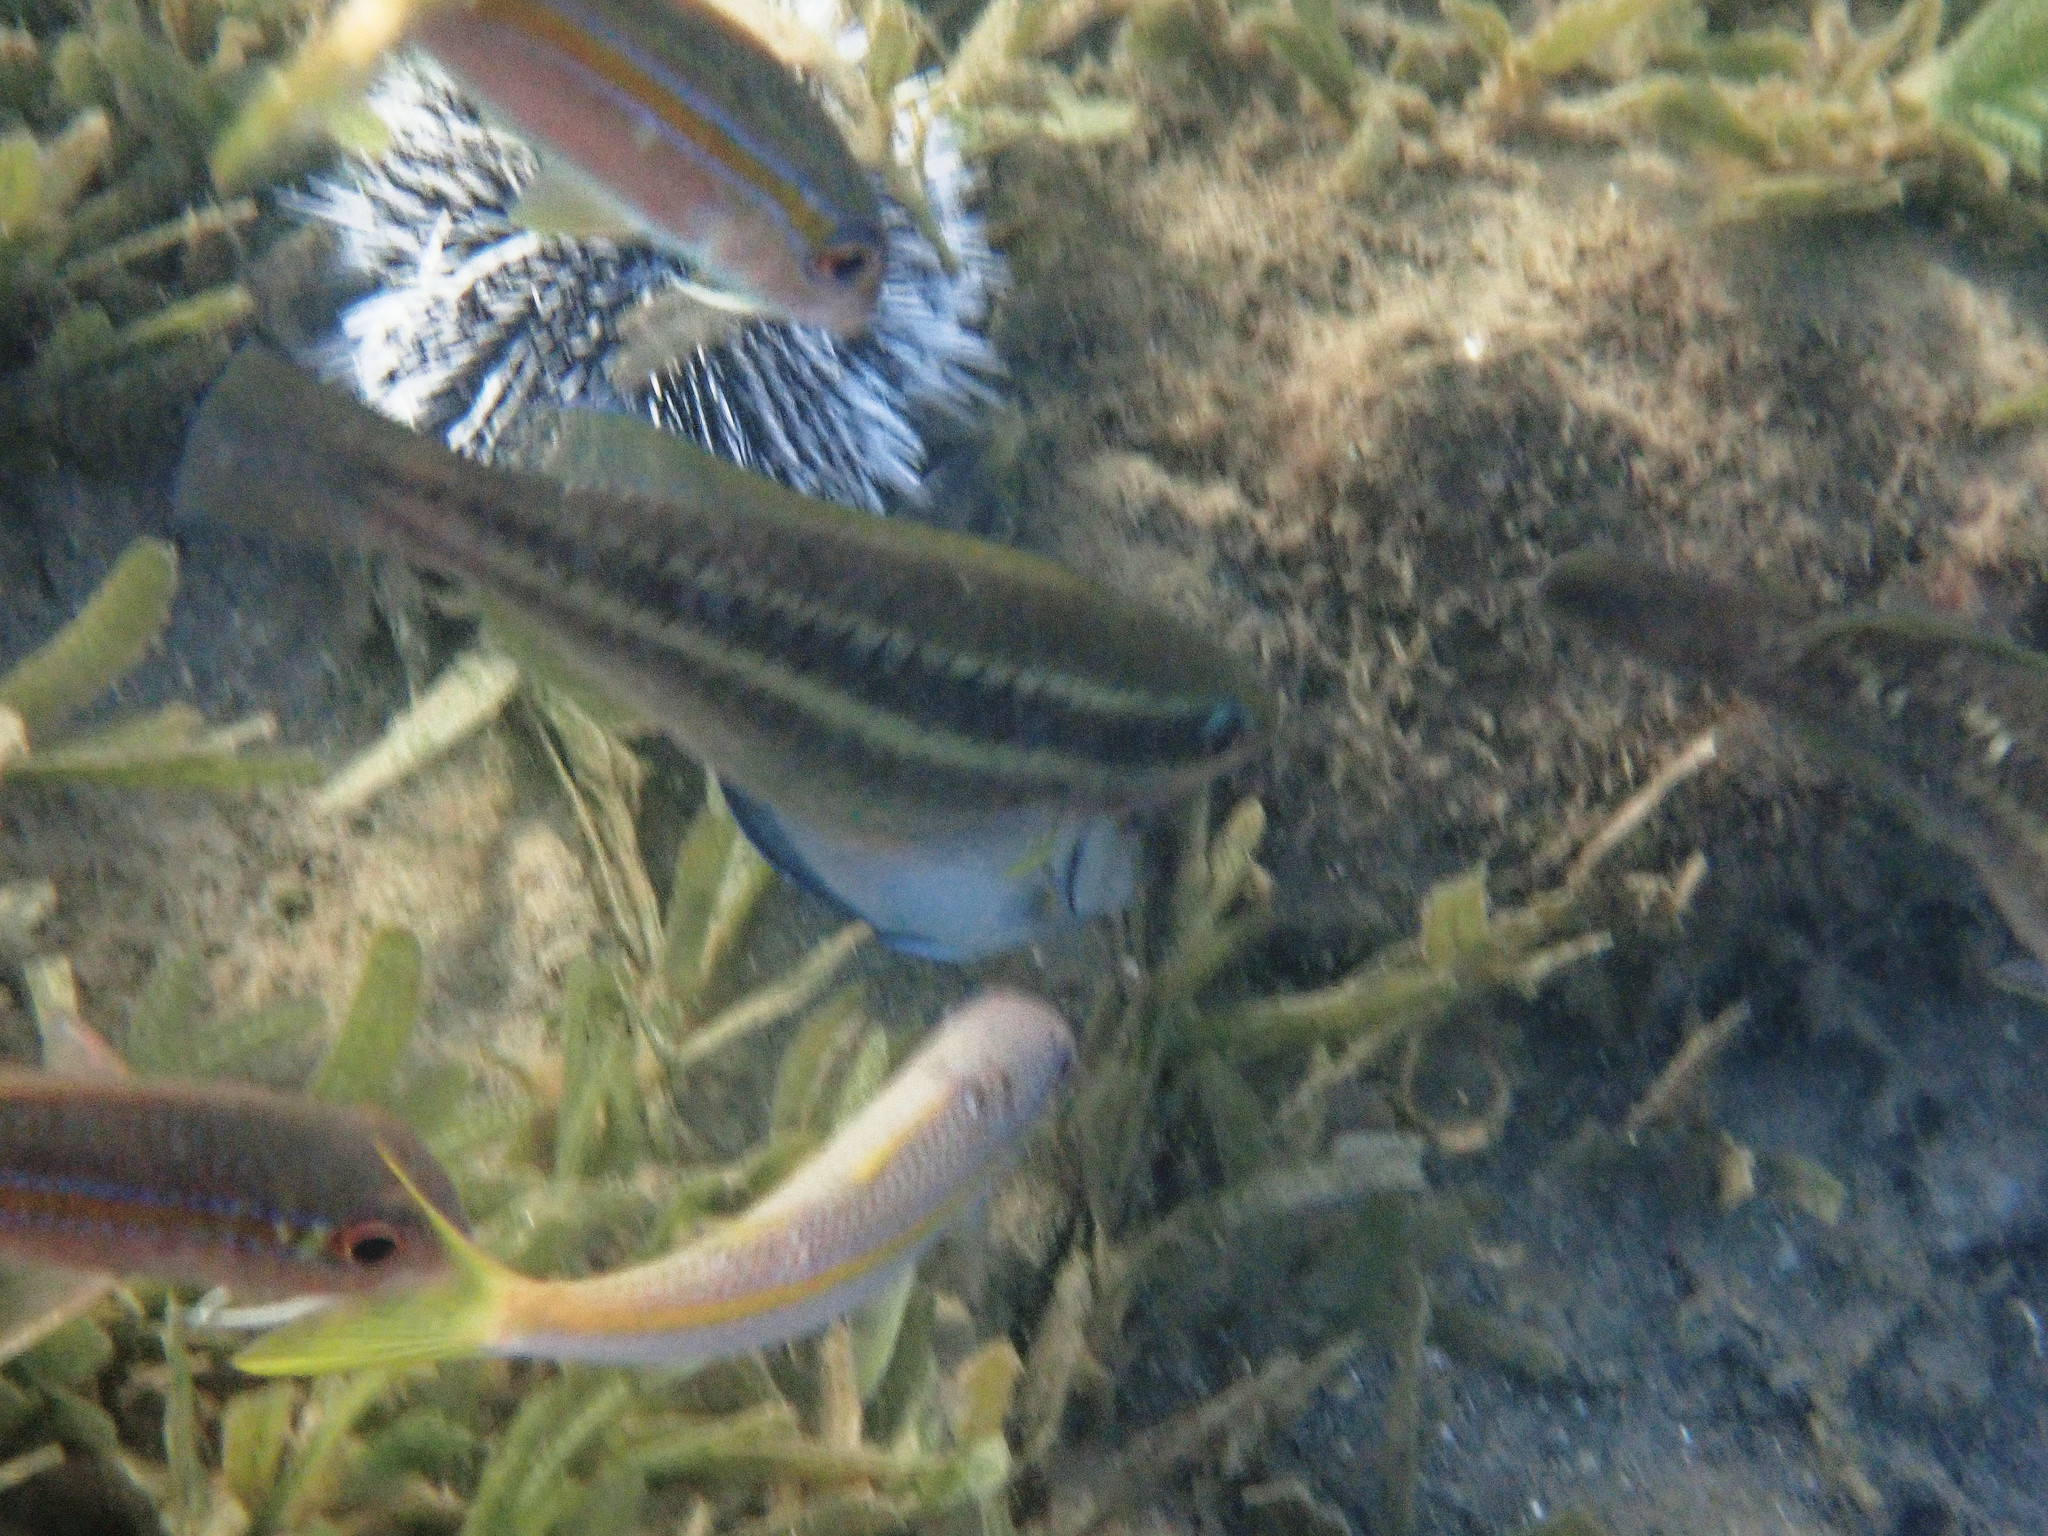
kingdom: Animalia
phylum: Chordata
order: Perciformes
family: Scaridae
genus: Scarus
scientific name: Scarus iseri
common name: Striped parrotfish
